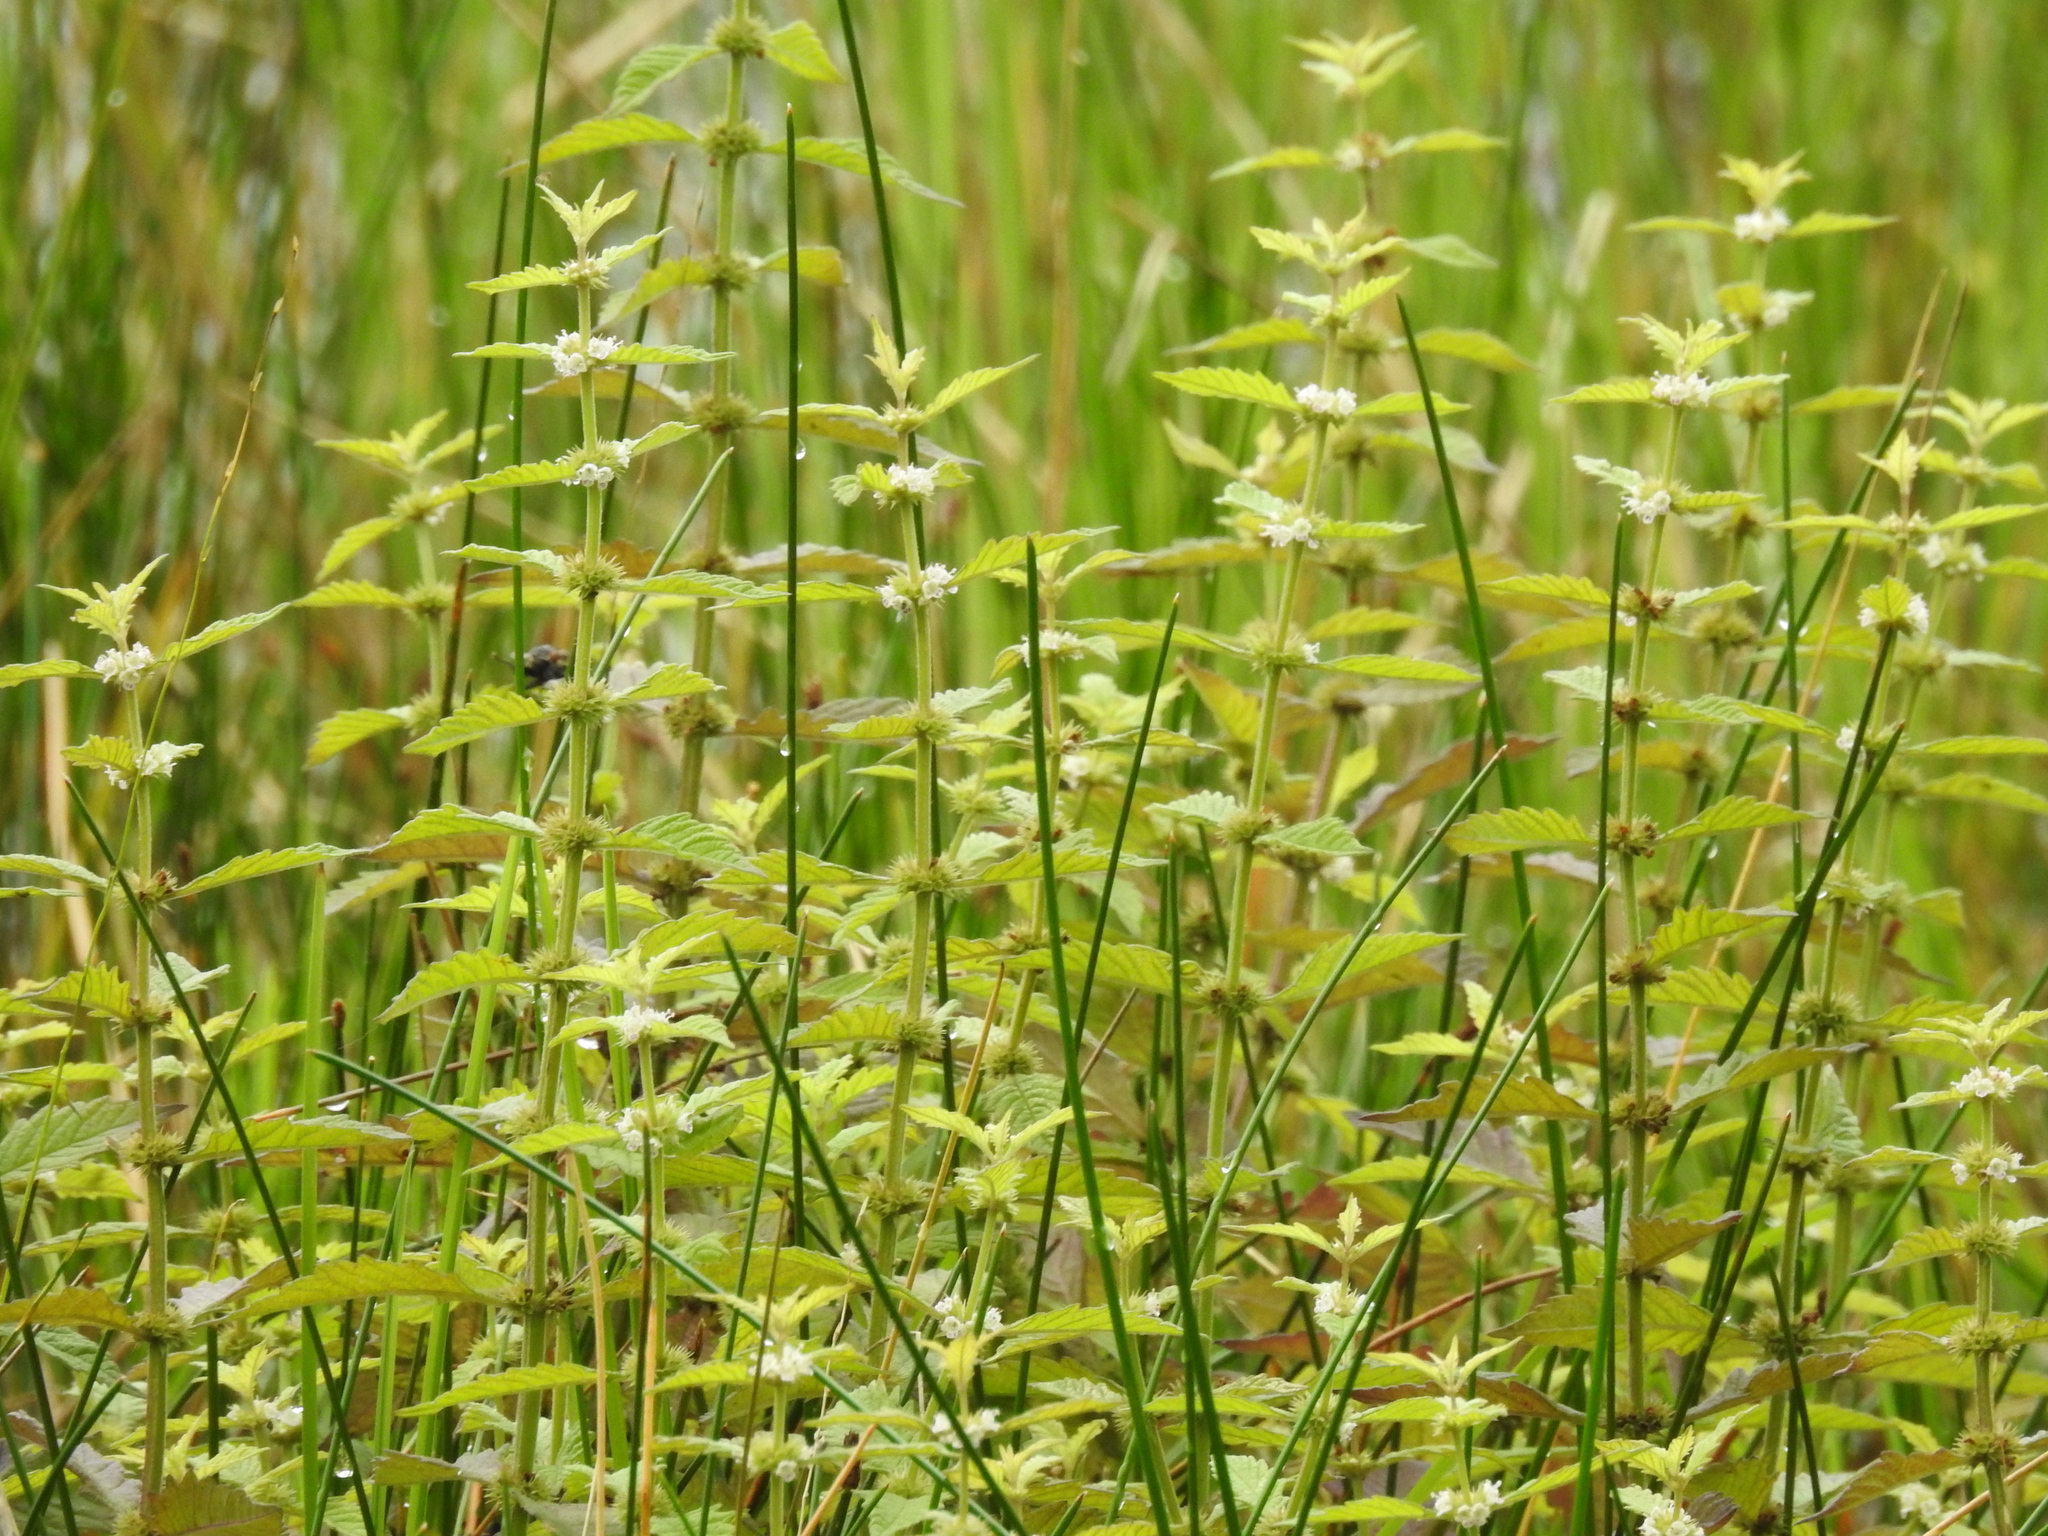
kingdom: Plantae
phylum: Tracheophyta
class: Magnoliopsida
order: Lamiales
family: Lamiaceae
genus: Lycopus
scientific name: Lycopus europaeus
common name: European bugleweed
